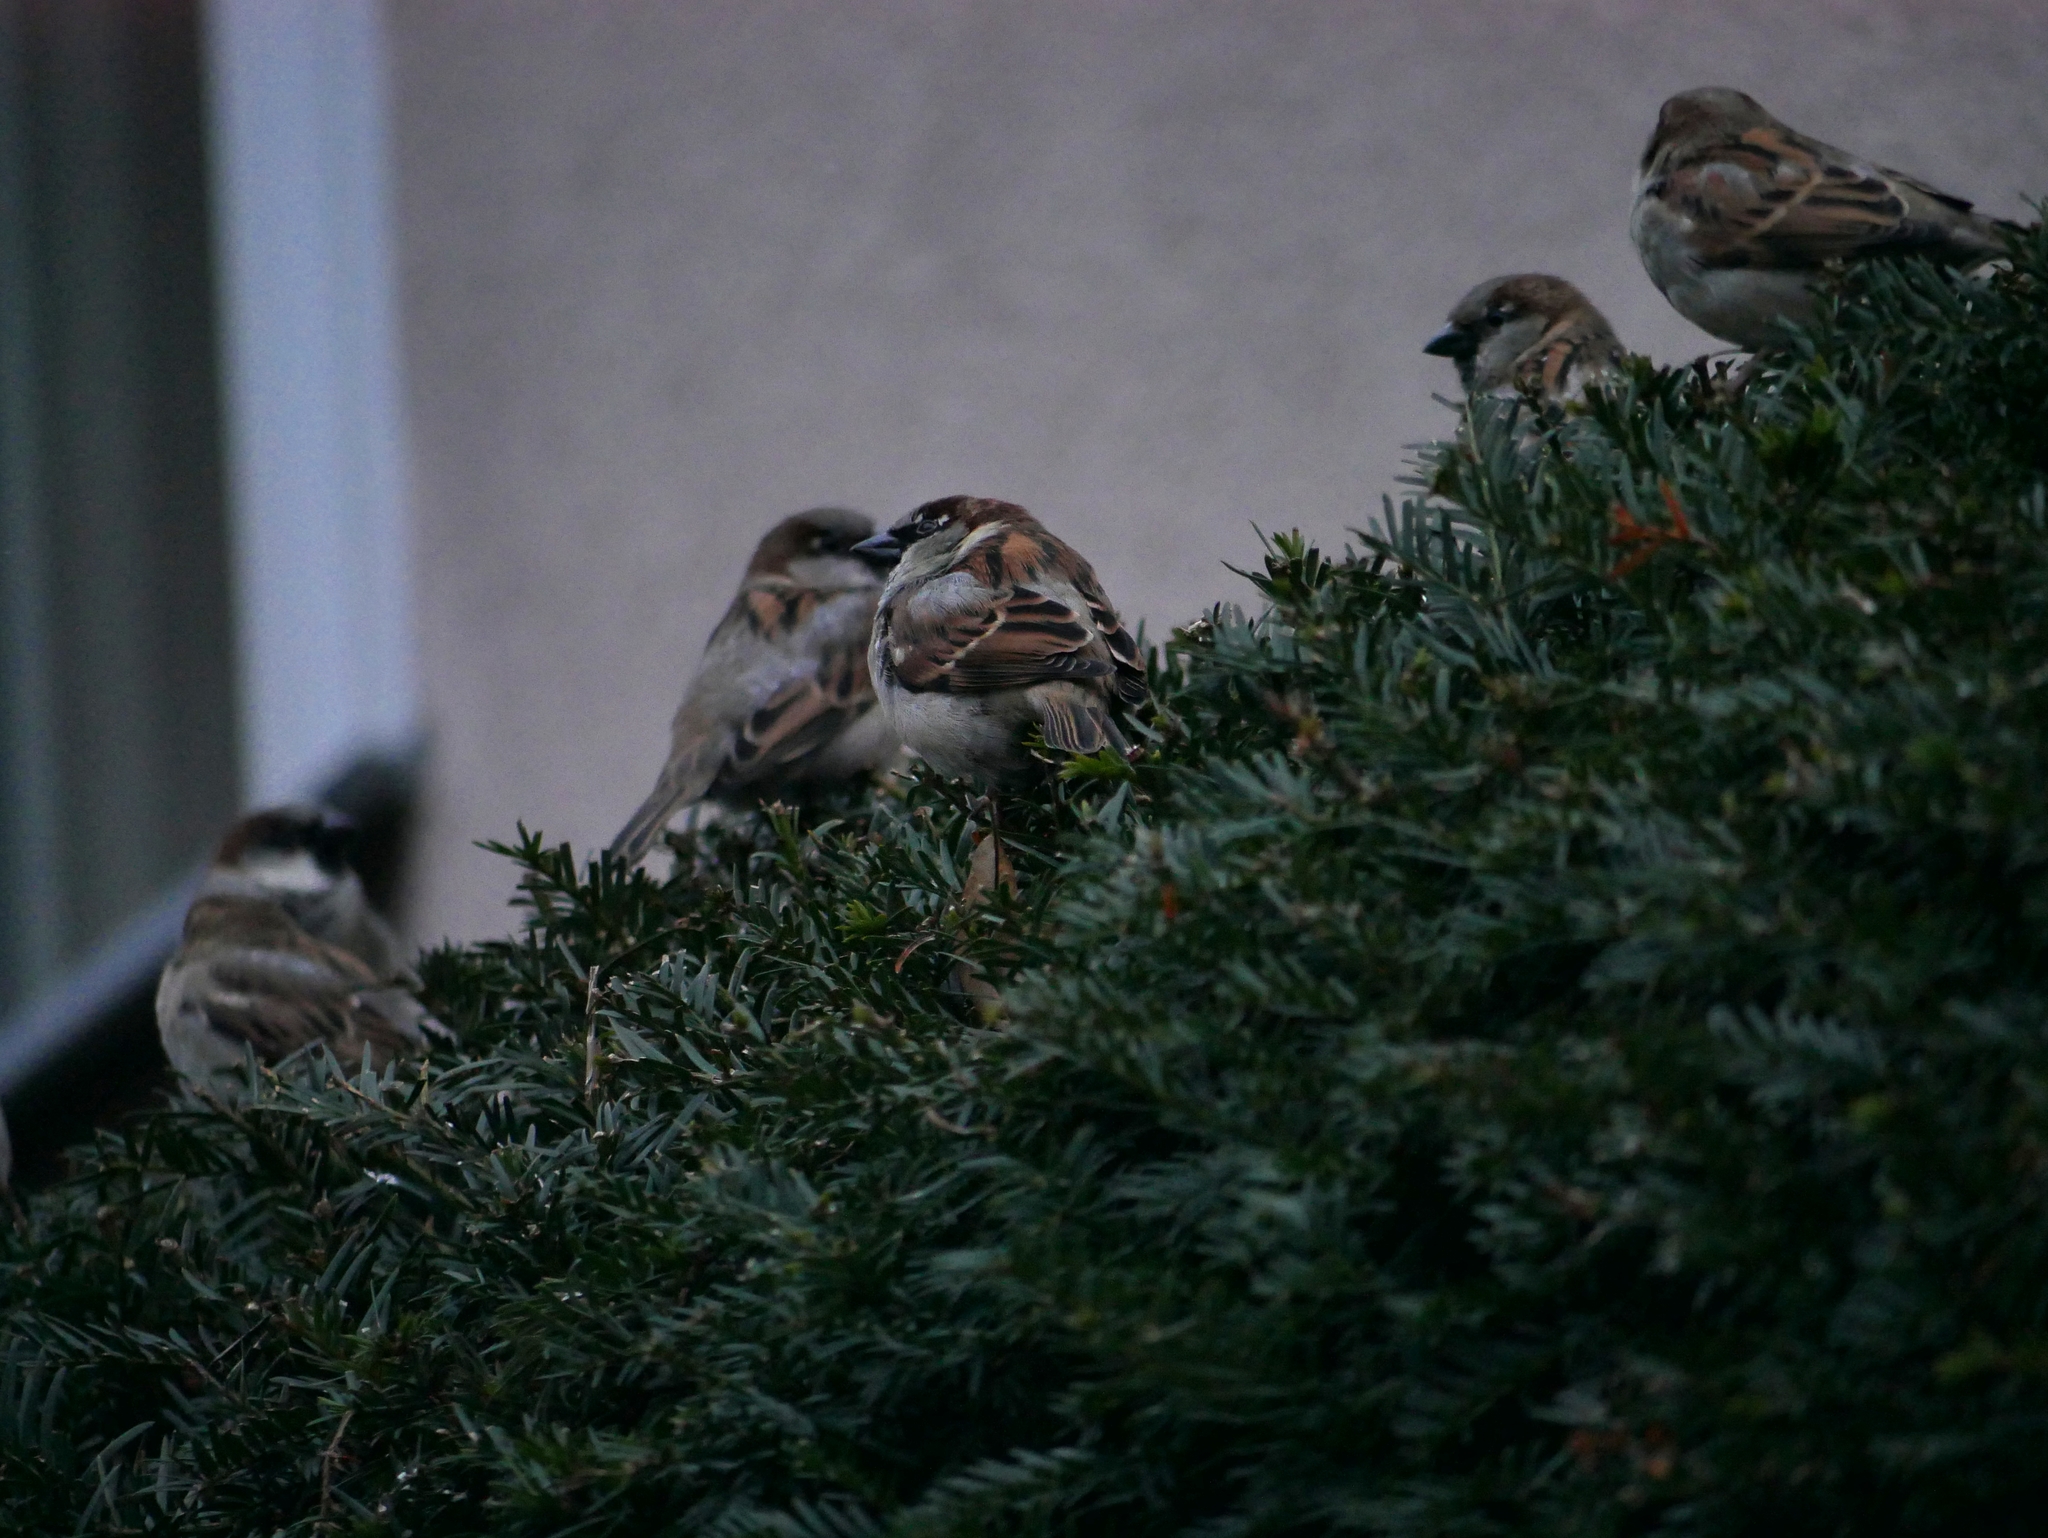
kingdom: Animalia
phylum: Chordata
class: Aves
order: Passeriformes
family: Passeridae
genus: Passer
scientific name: Passer domesticus
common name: House sparrow
